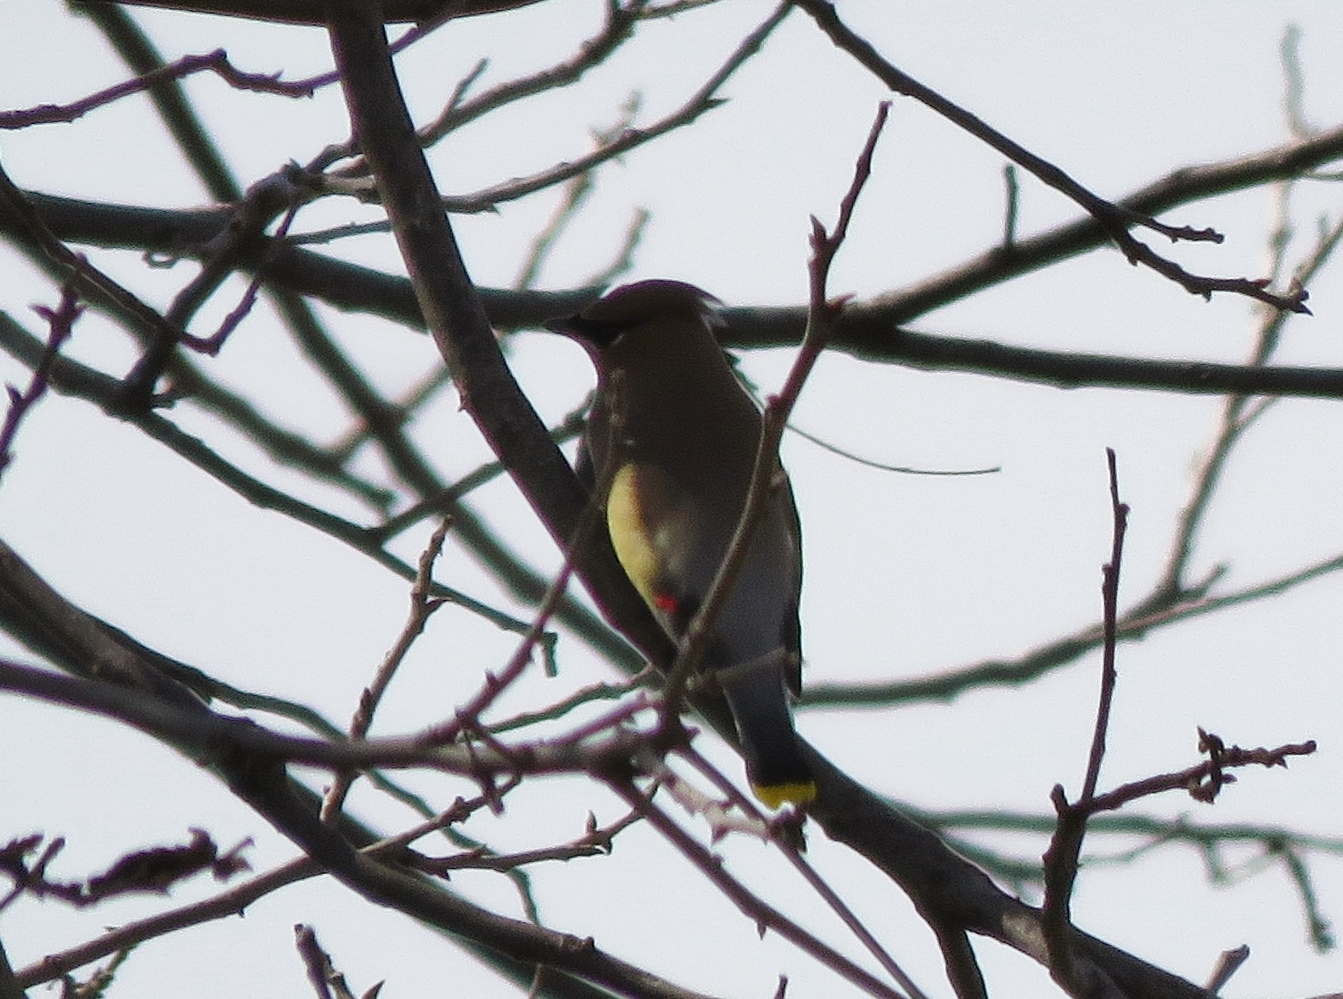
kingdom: Animalia
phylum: Chordata
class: Aves
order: Passeriformes
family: Bombycillidae
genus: Bombycilla
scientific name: Bombycilla cedrorum
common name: Cedar waxwing
